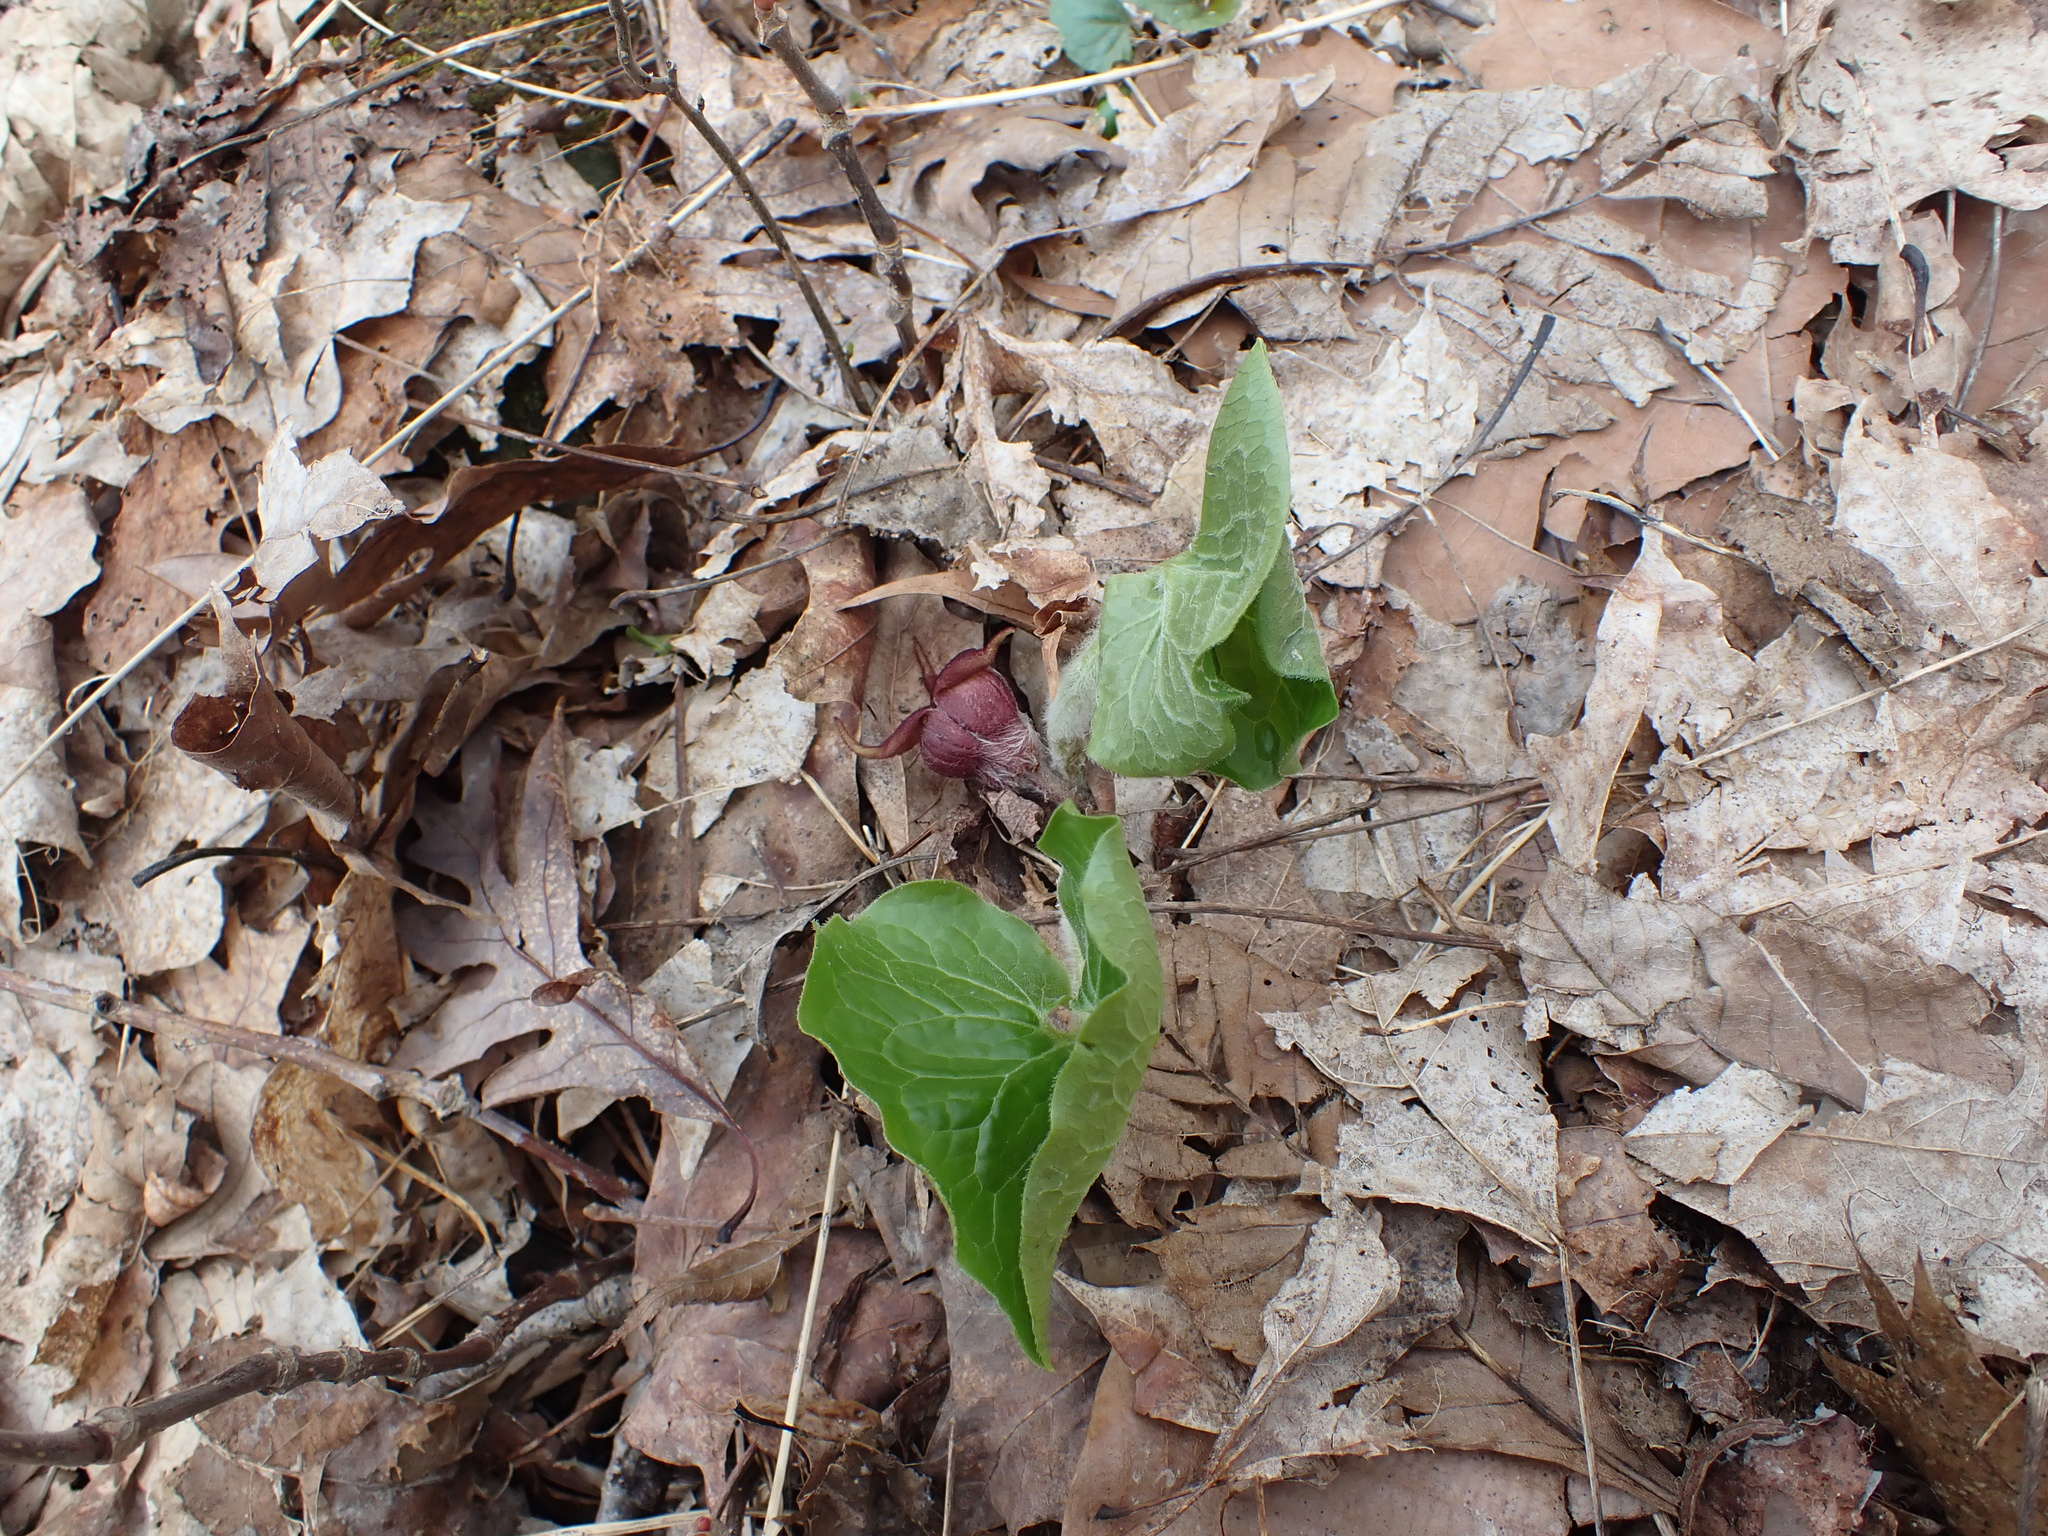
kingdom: Plantae
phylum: Tracheophyta
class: Magnoliopsida
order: Piperales
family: Aristolochiaceae
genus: Asarum
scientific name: Asarum canadense
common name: Wild ginger
